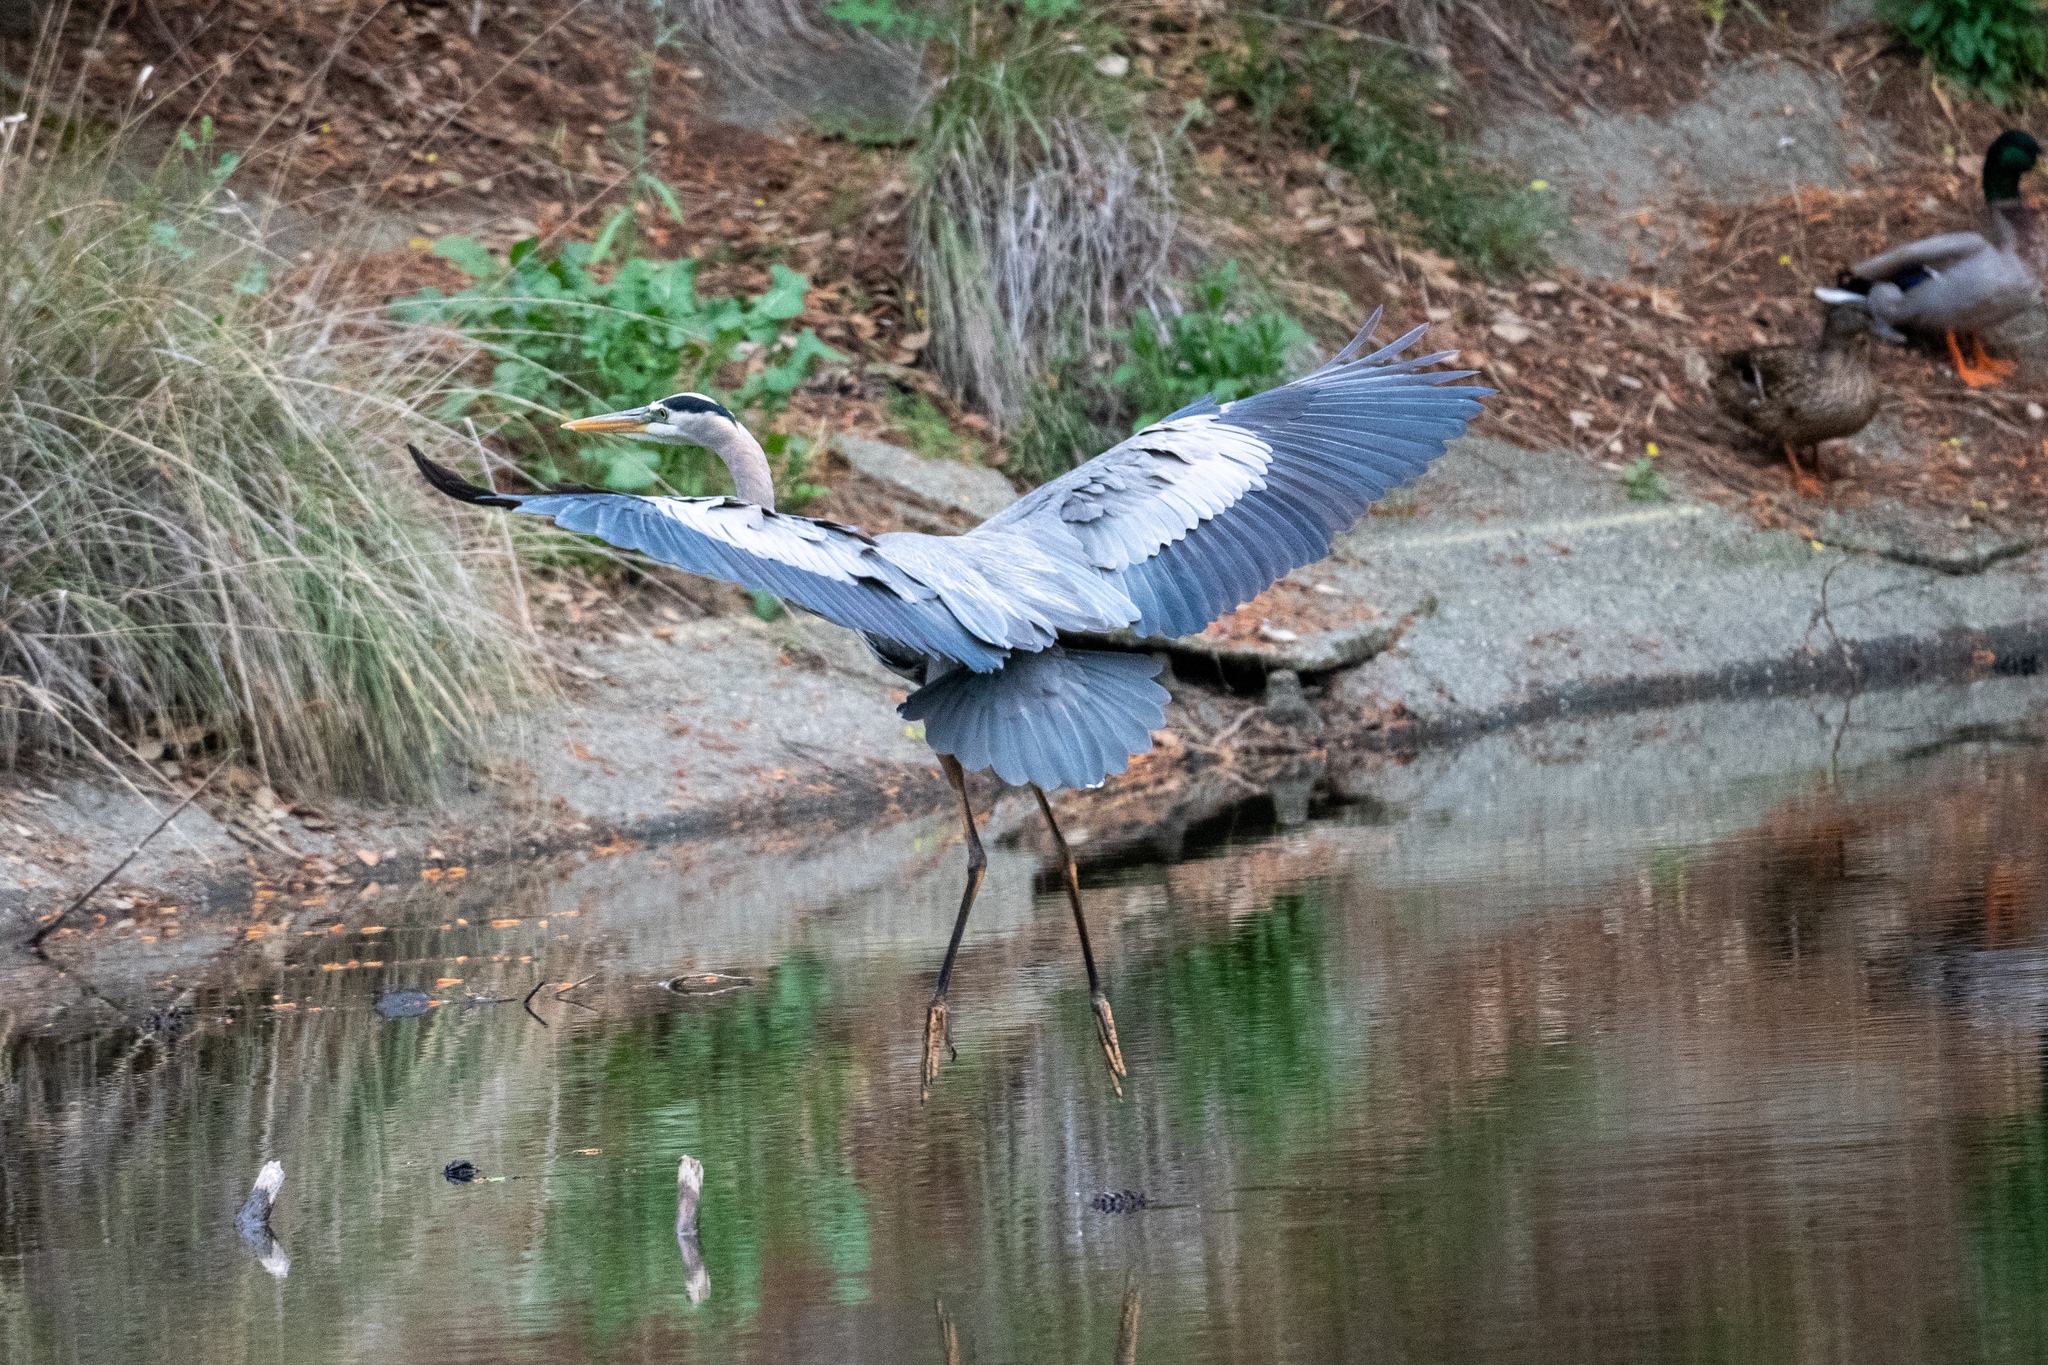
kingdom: Animalia
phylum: Chordata
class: Aves
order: Pelecaniformes
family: Ardeidae
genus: Ardea
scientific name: Ardea herodias
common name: Great blue heron
